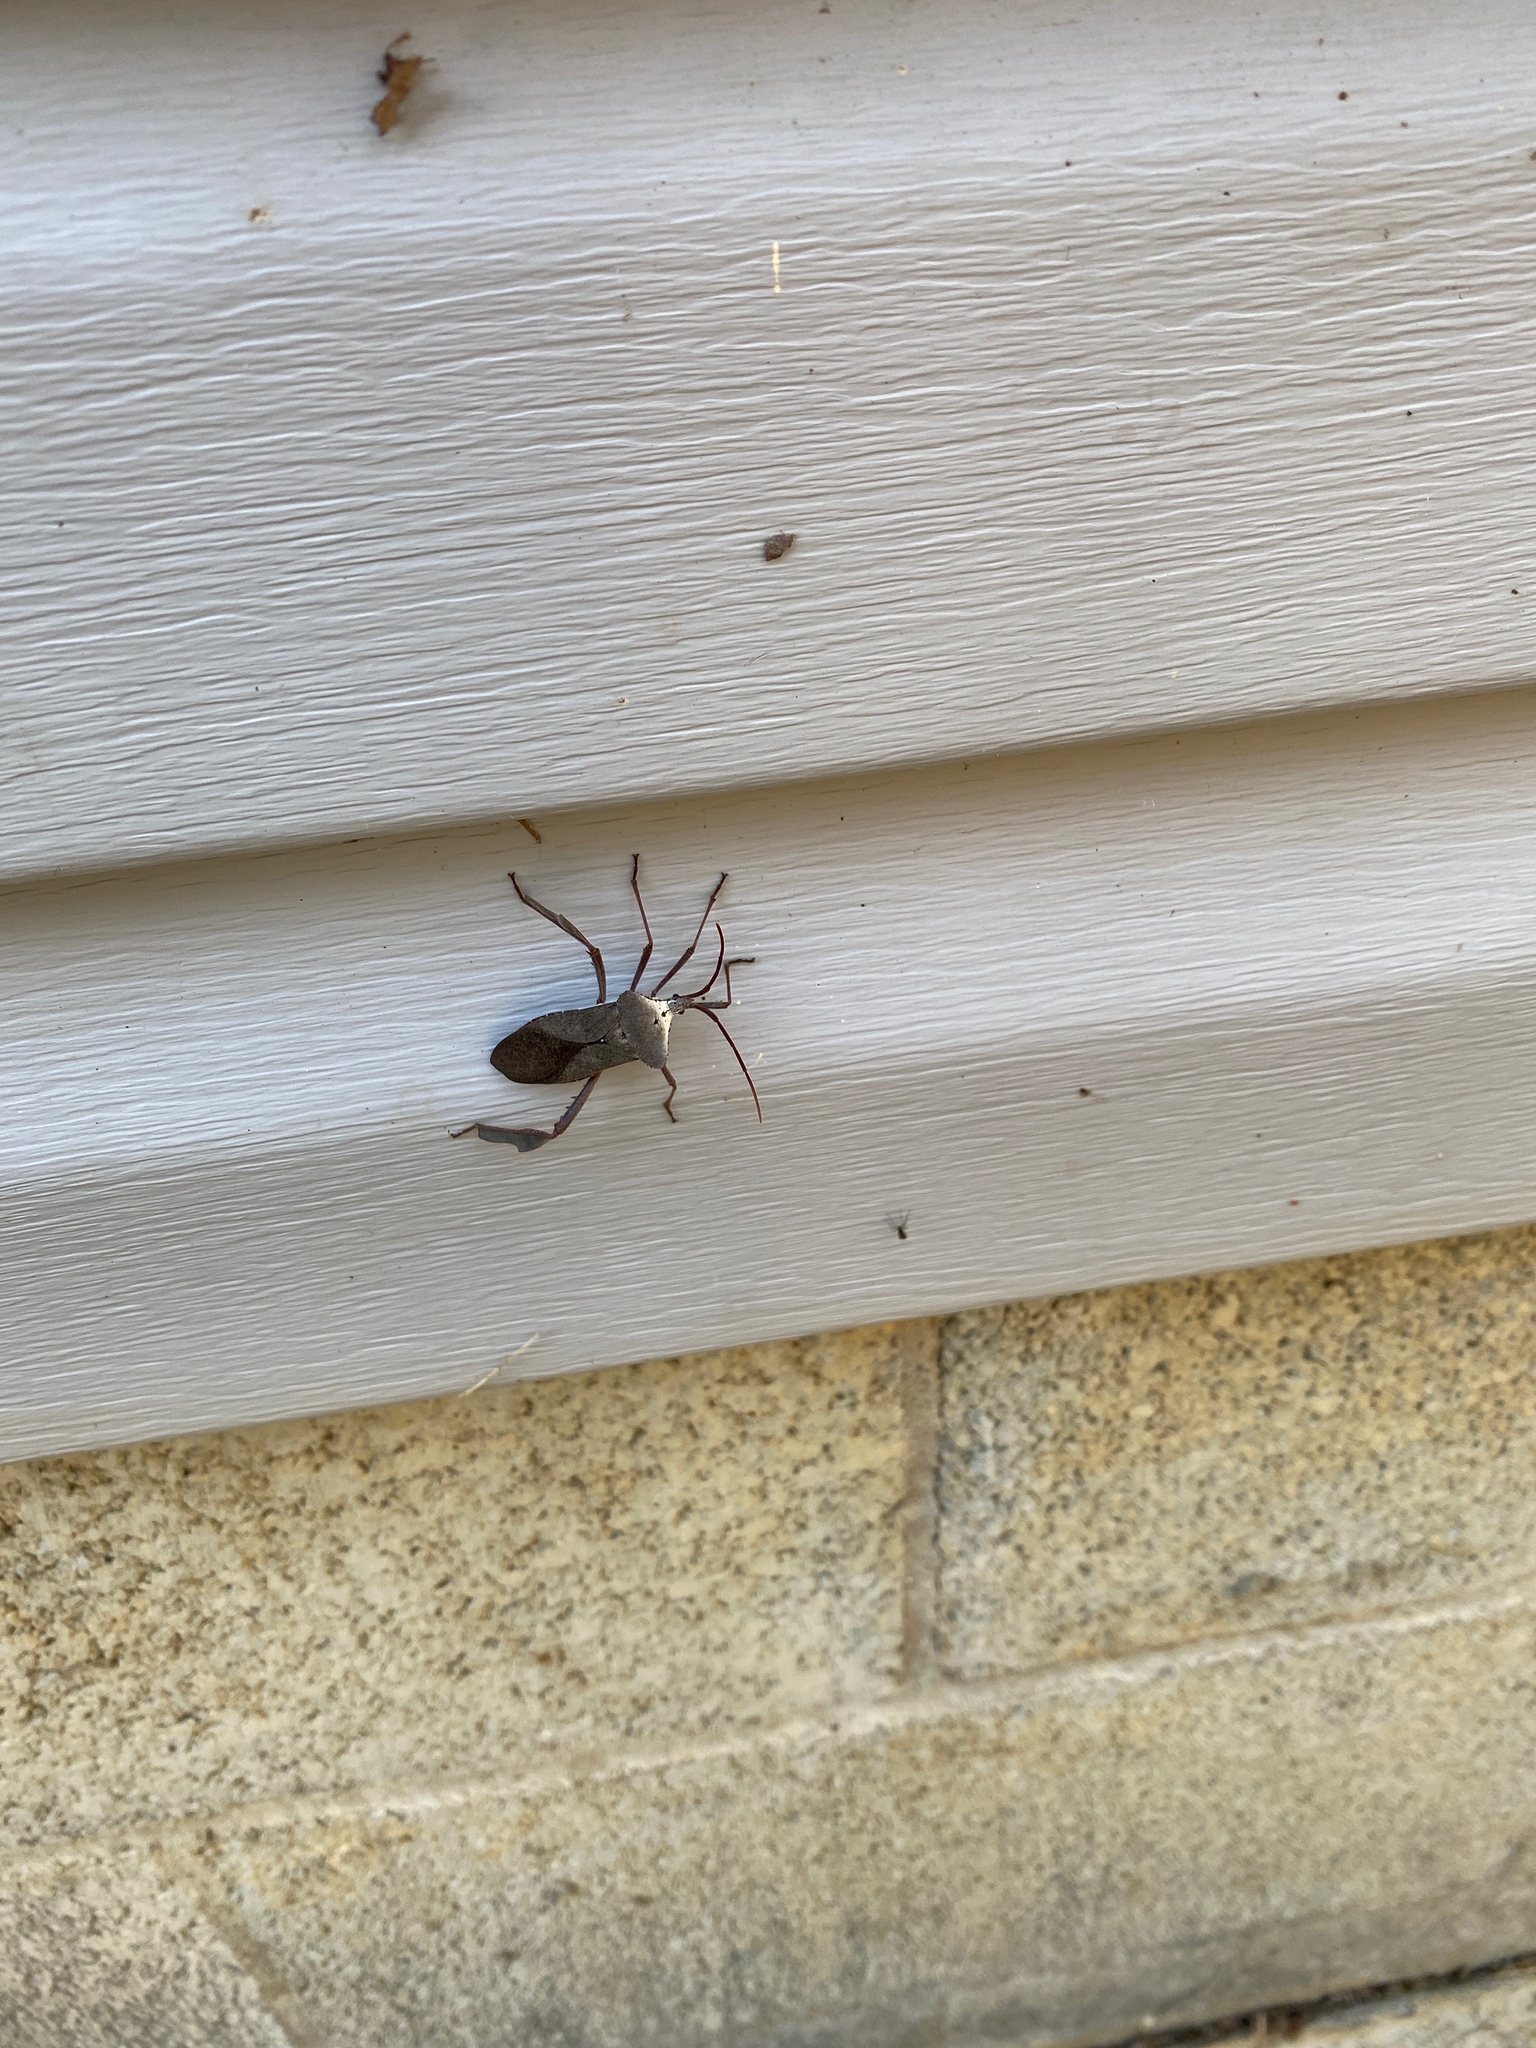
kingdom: Animalia
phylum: Arthropoda
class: Insecta
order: Hemiptera
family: Coreidae
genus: Acanthocephala
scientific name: Acanthocephala declivis
